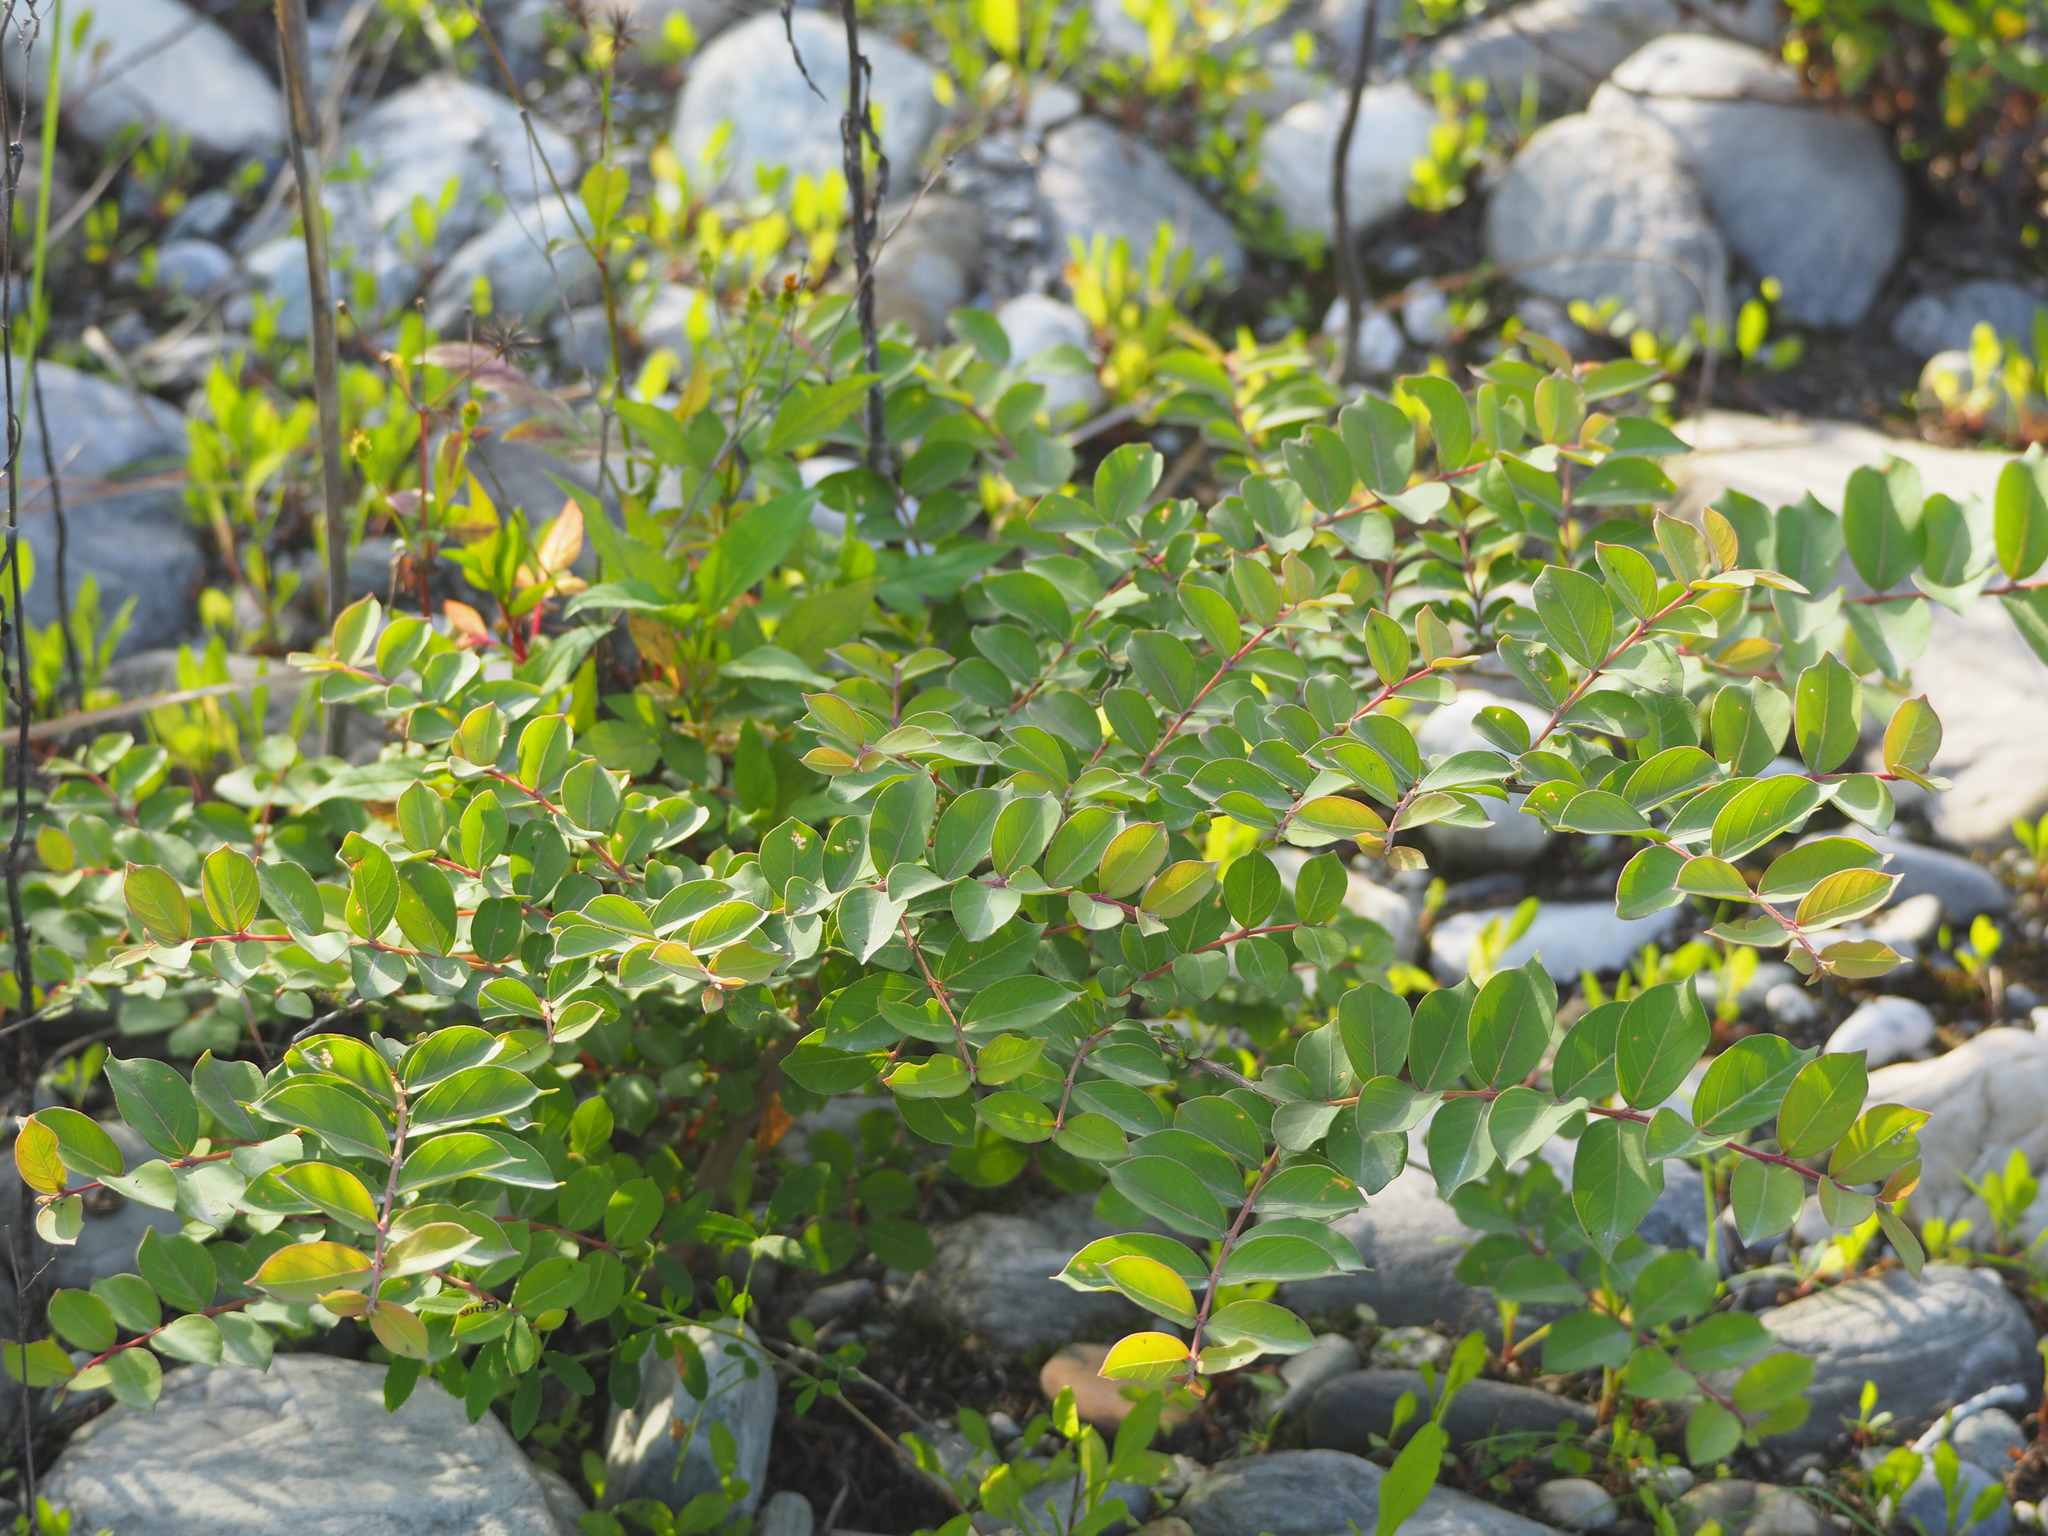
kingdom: Plantae
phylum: Tracheophyta
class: Magnoliopsida
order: Myrtales
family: Lythraceae
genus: Lagerstroemia
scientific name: Lagerstroemia subcostata
